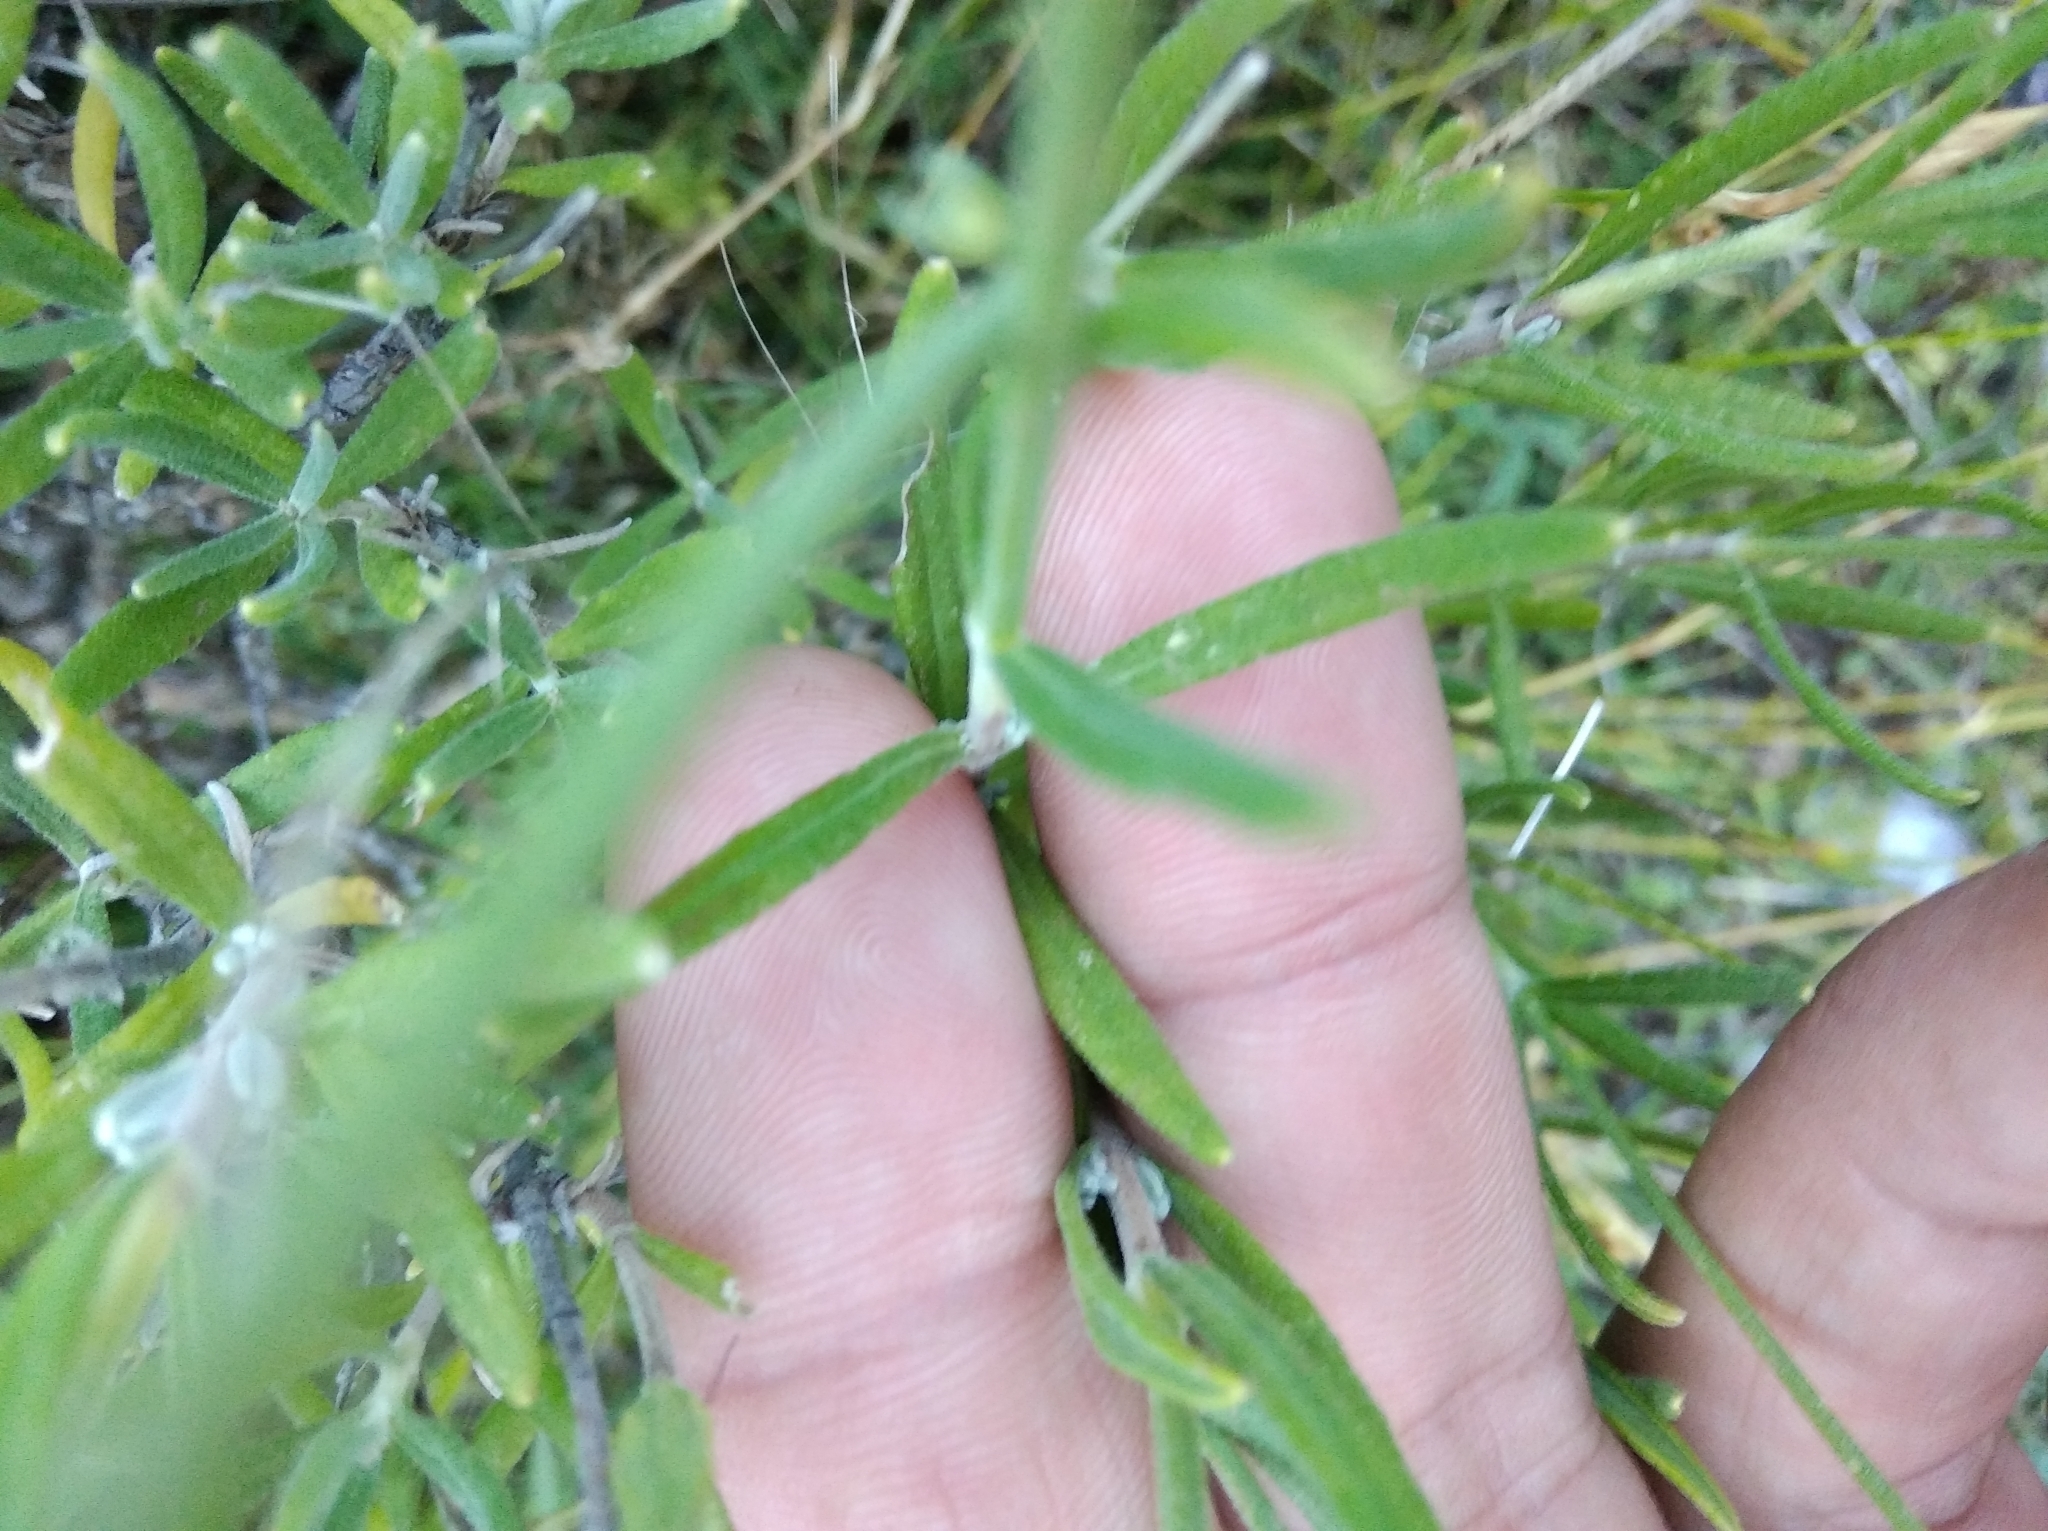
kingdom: Plantae
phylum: Tracheophyta
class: Magnoliopsida
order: Lamiales
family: Lamiaceae
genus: Lavandula
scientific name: Lavandula angustifolia
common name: Garden lavender
